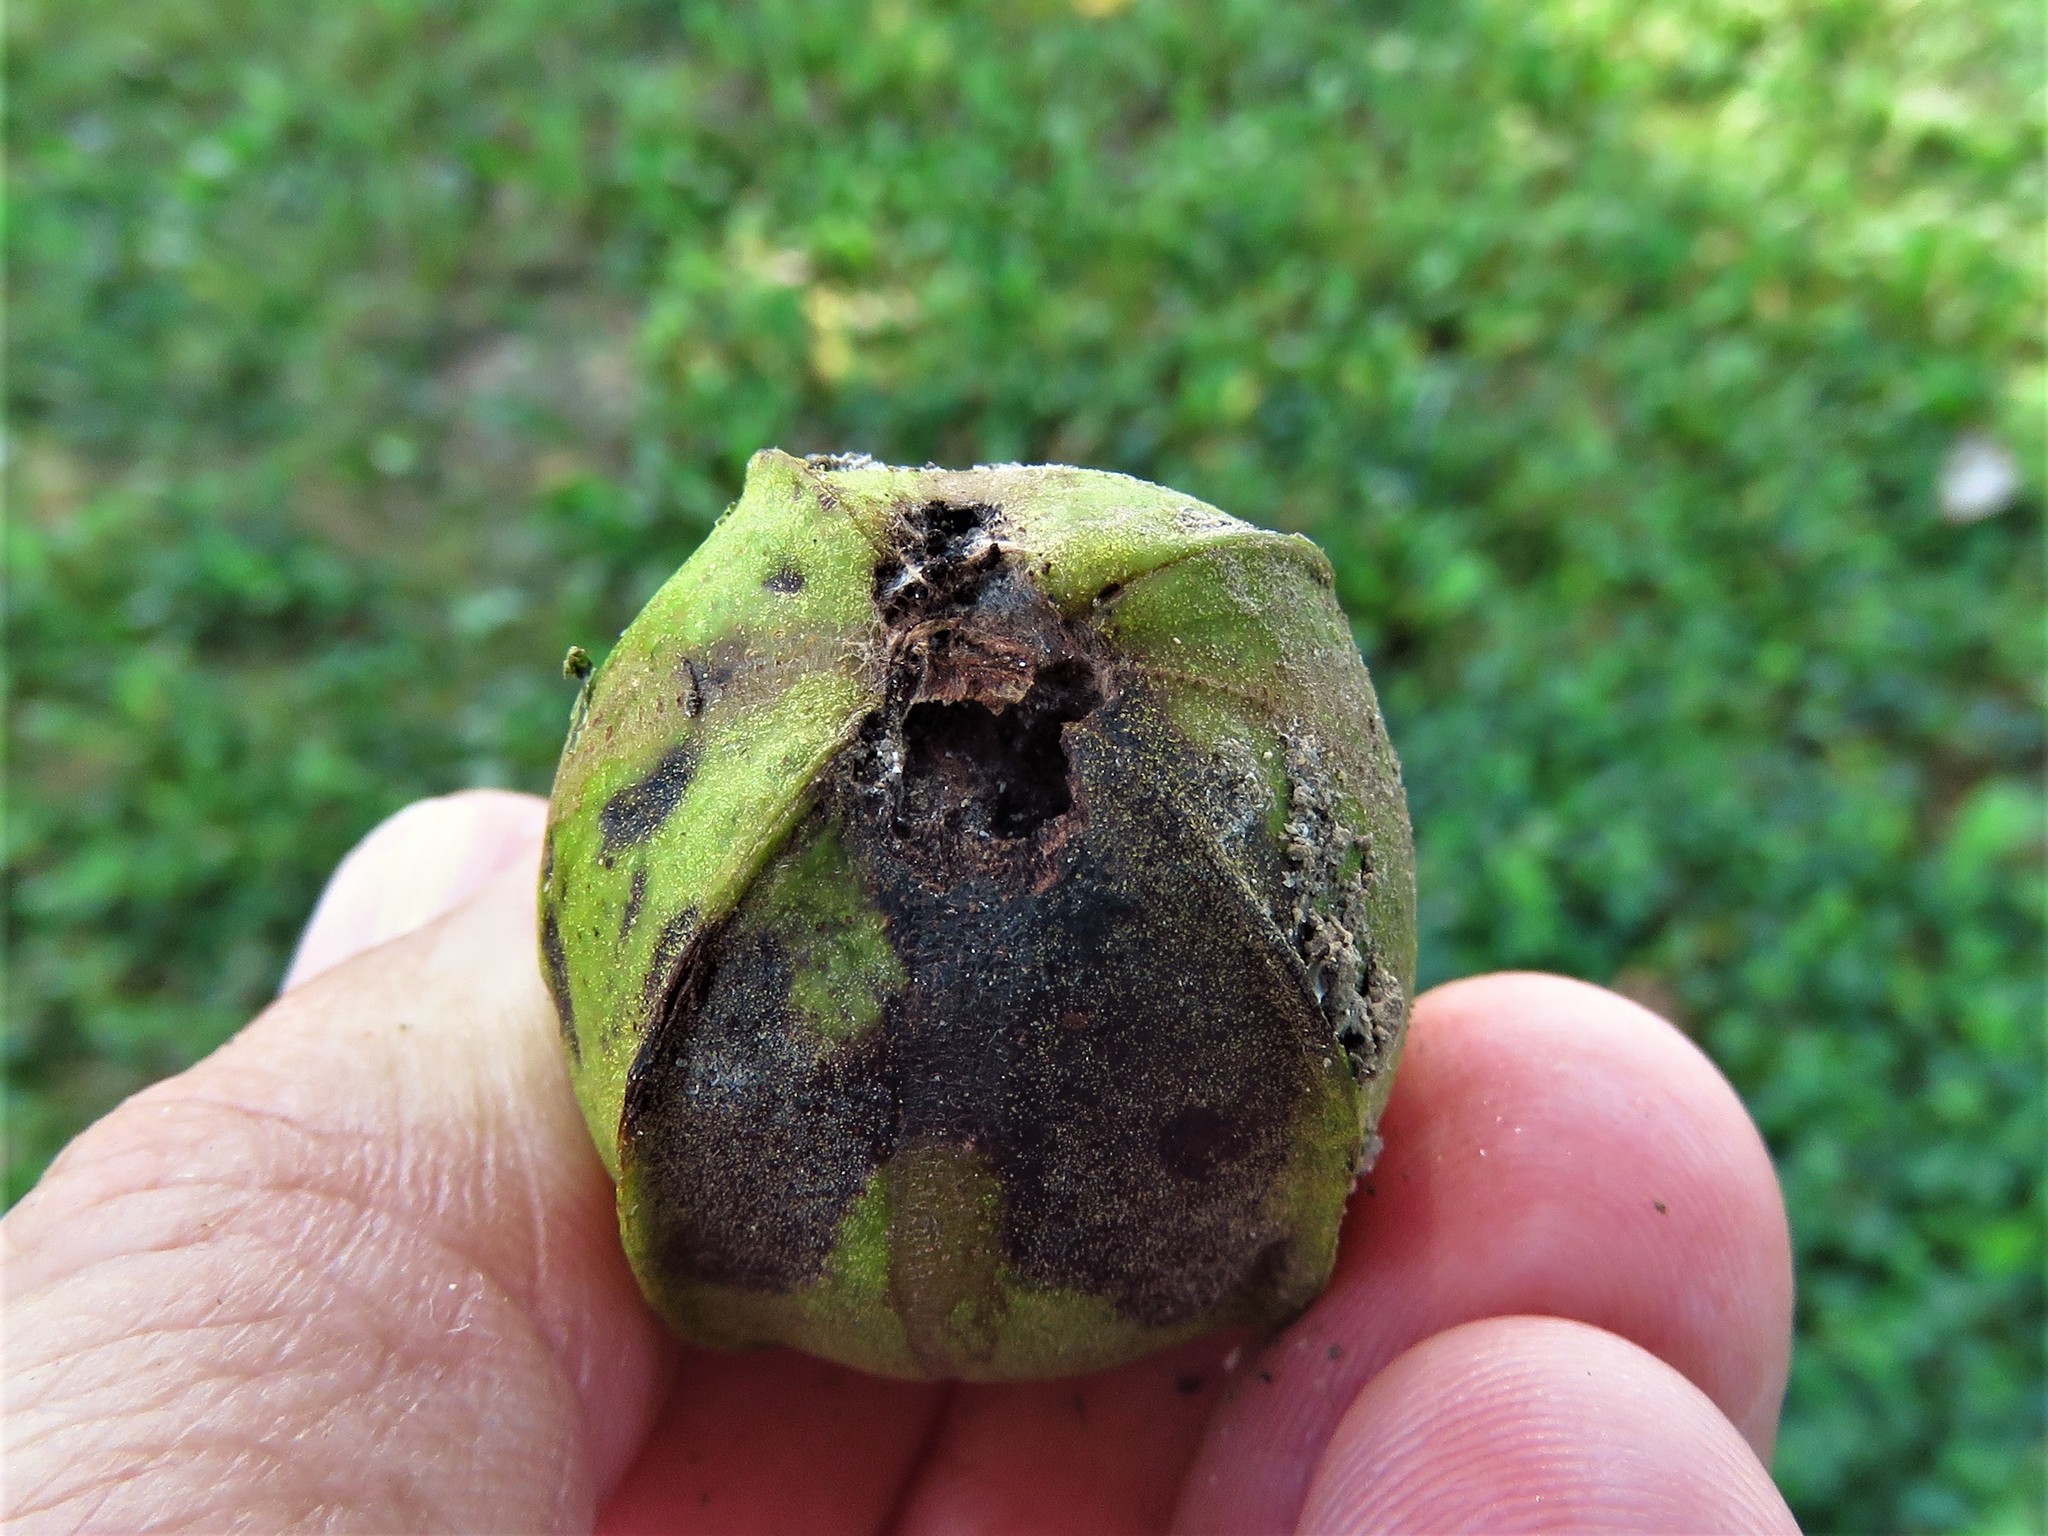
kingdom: Plantae
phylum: Tracheophyta
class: Magnoliopsida
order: Fagales
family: Juglandaceae
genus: Carya
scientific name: Carya illinoinensis
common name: Pecan
